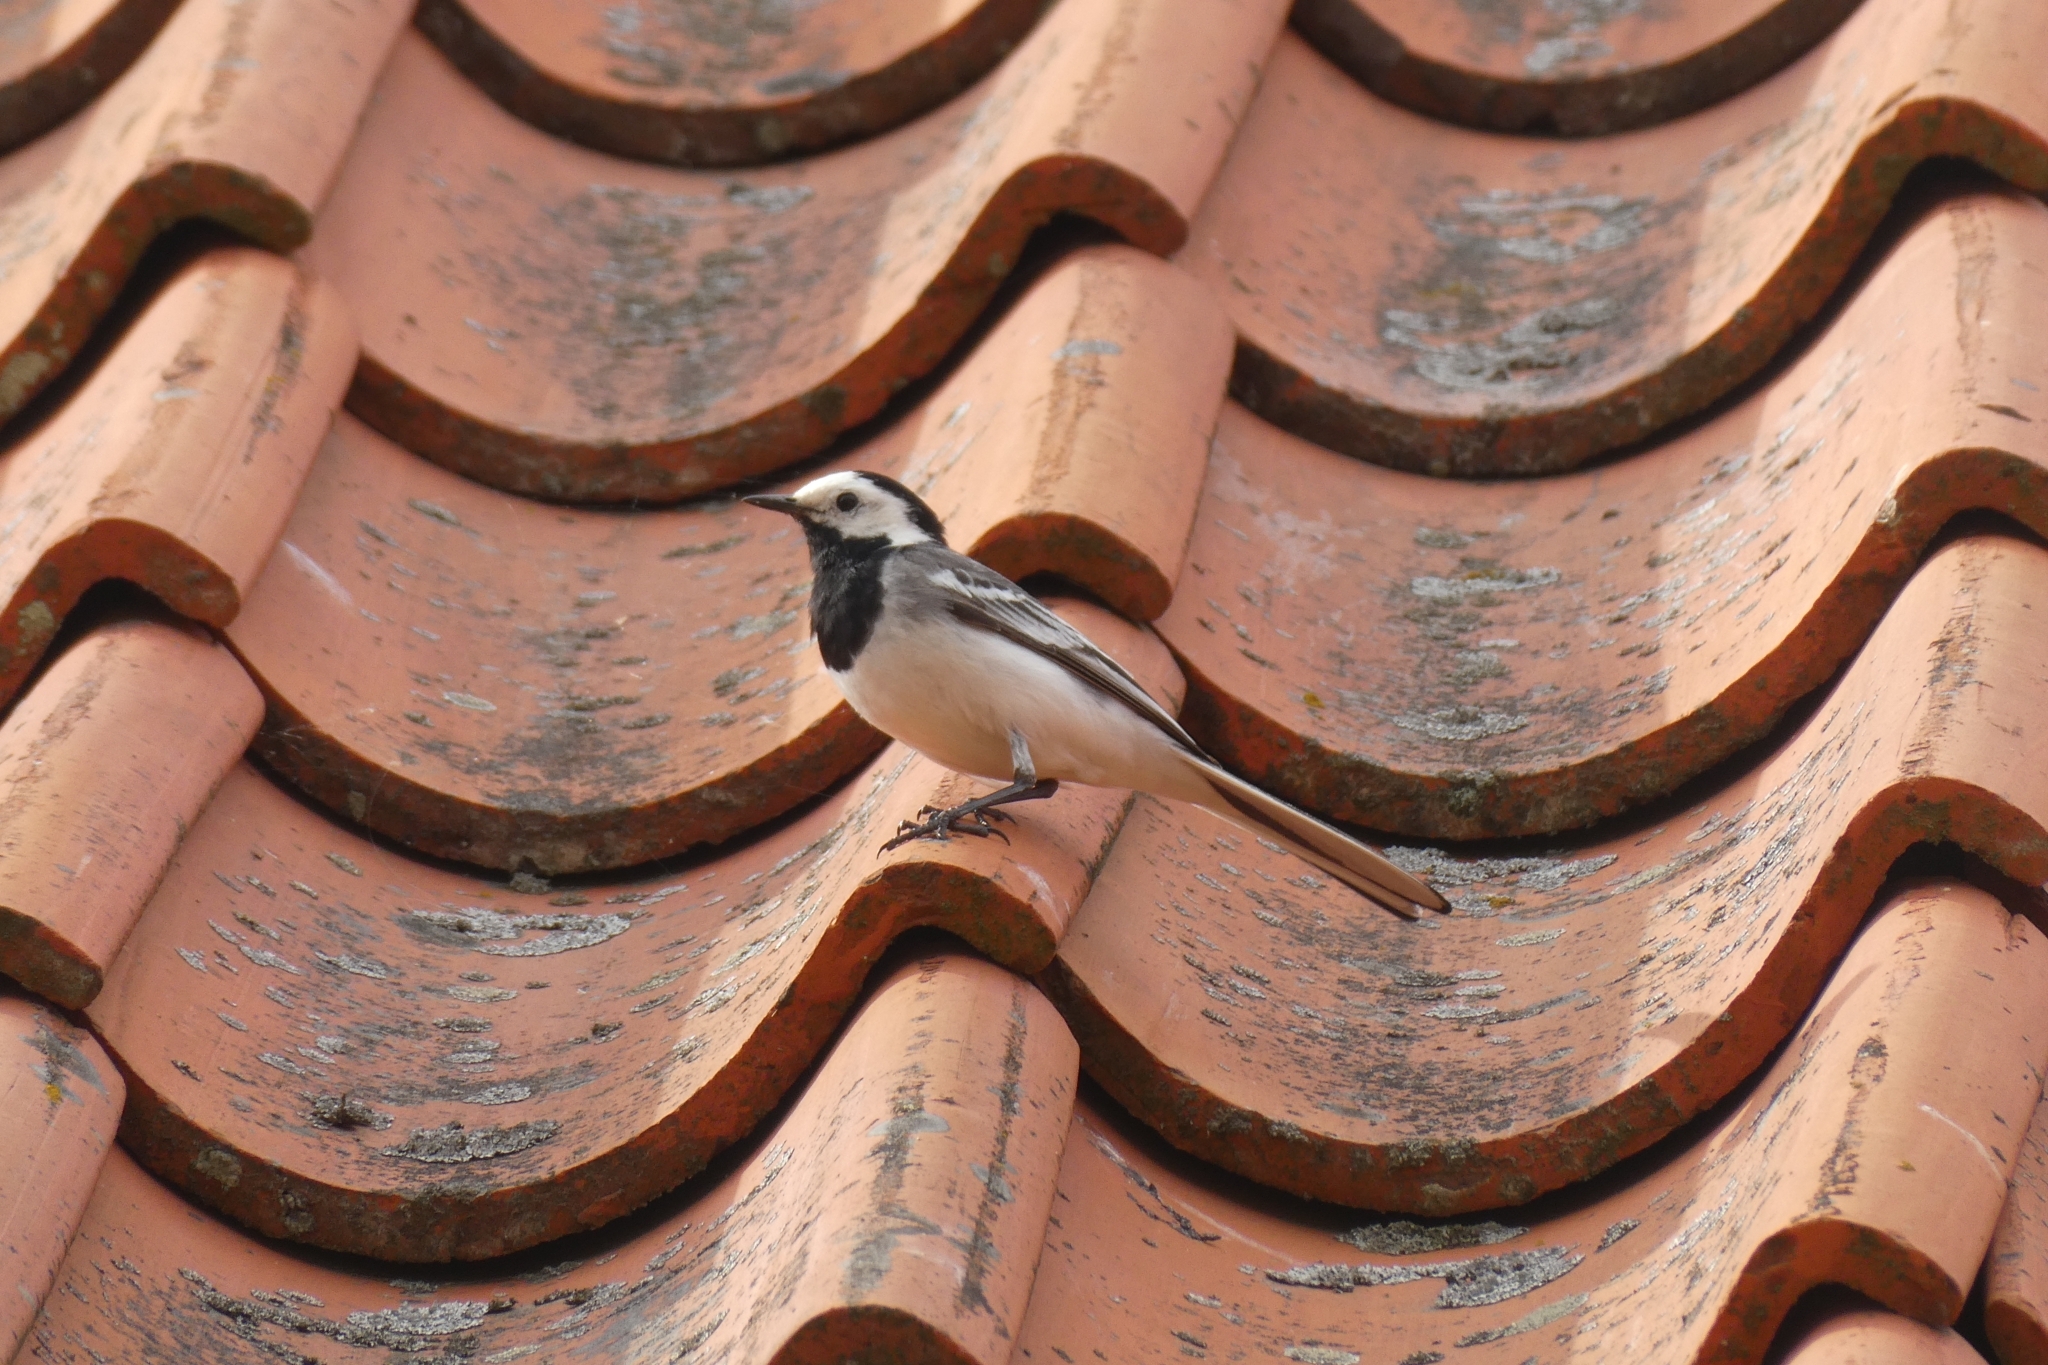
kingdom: Animalia
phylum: Chordata
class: Aves
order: Passeriformes
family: Motacillidae
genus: Motacilla
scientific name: Motacilla alba
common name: White wagtail
